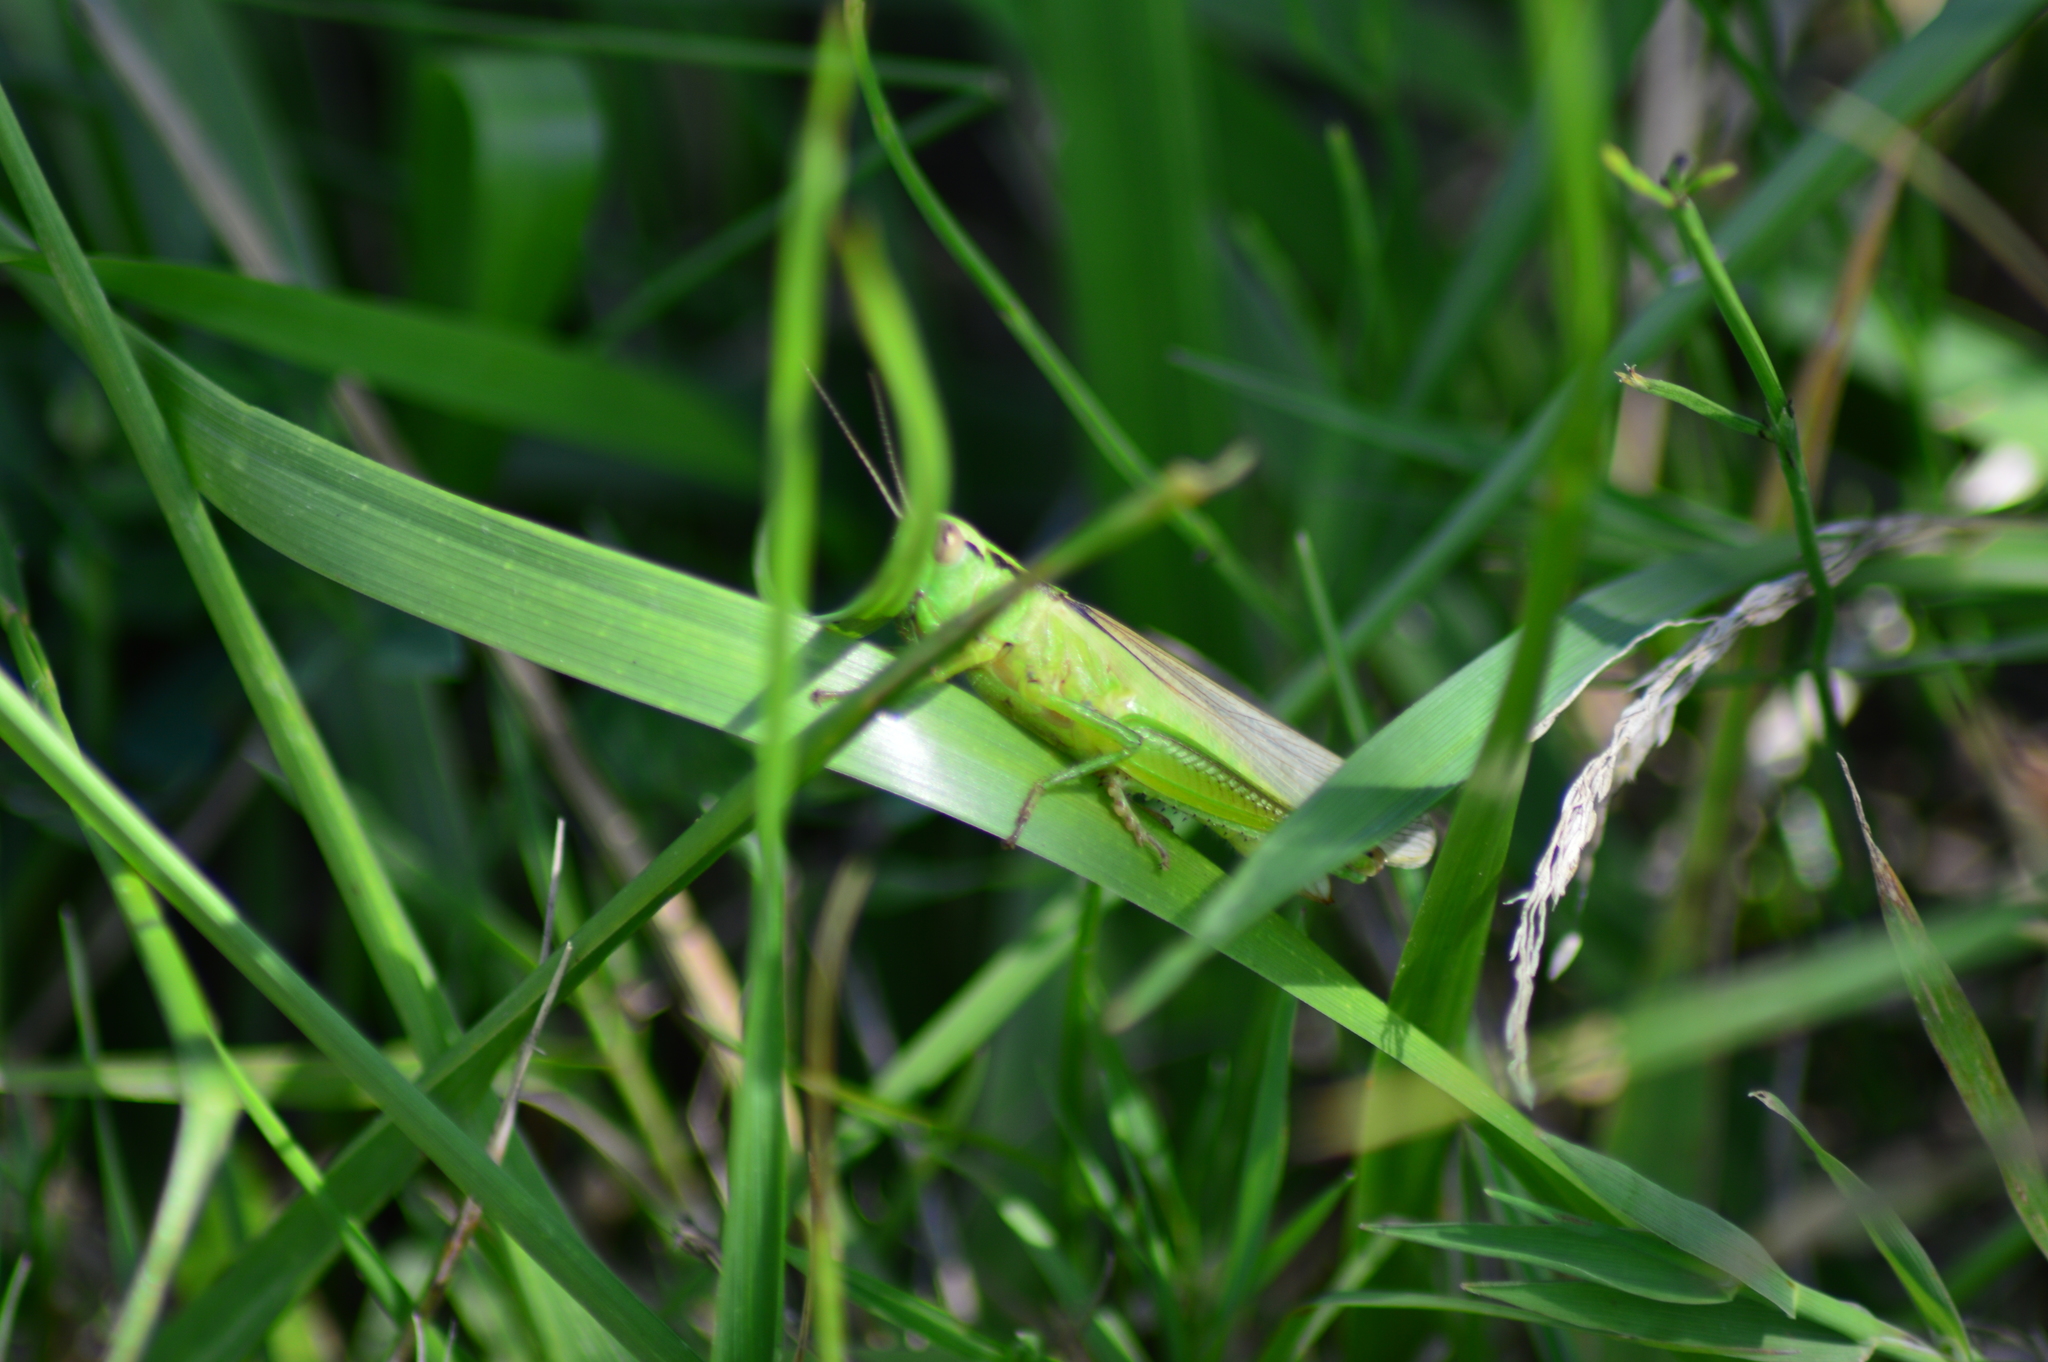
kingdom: Animalia
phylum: Arthropoda
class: Insecta
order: Orthoptera
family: Acrididae
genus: Mecostethus
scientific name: Mecostethus parapleurus
